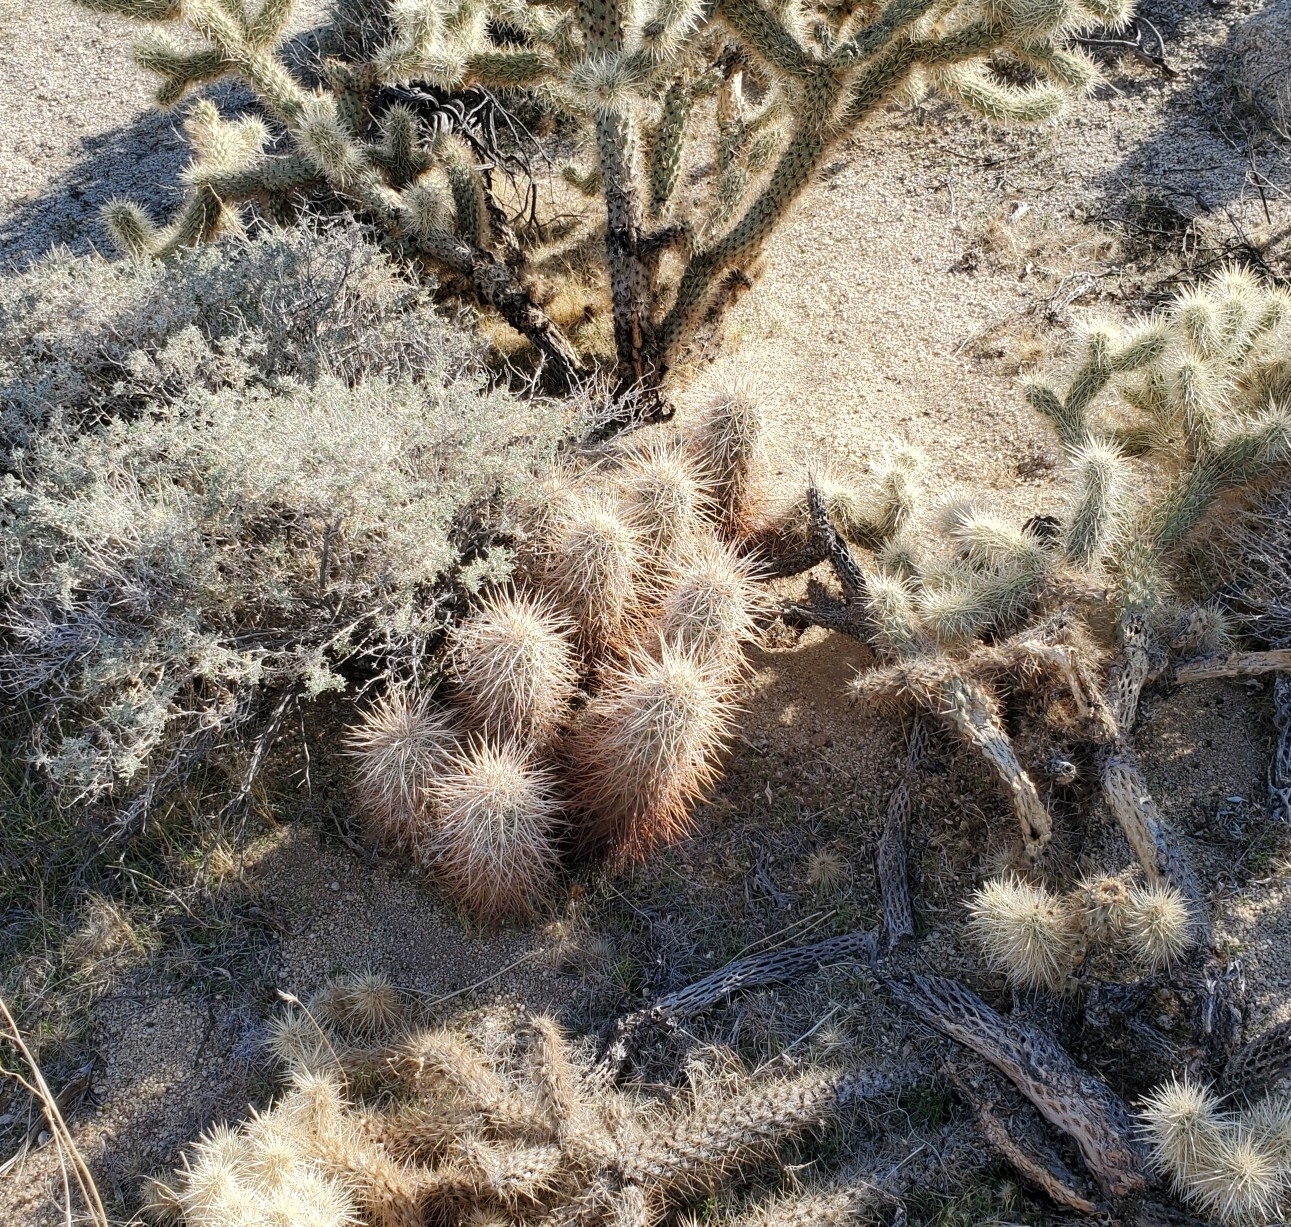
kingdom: Plantae
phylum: Tracheophyta
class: Magnoliopsida
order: Caryophyllales
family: Cactaceae
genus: Echinocereus
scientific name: Echinocereus engelmannii
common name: Engelmann's hedgehog cactus
